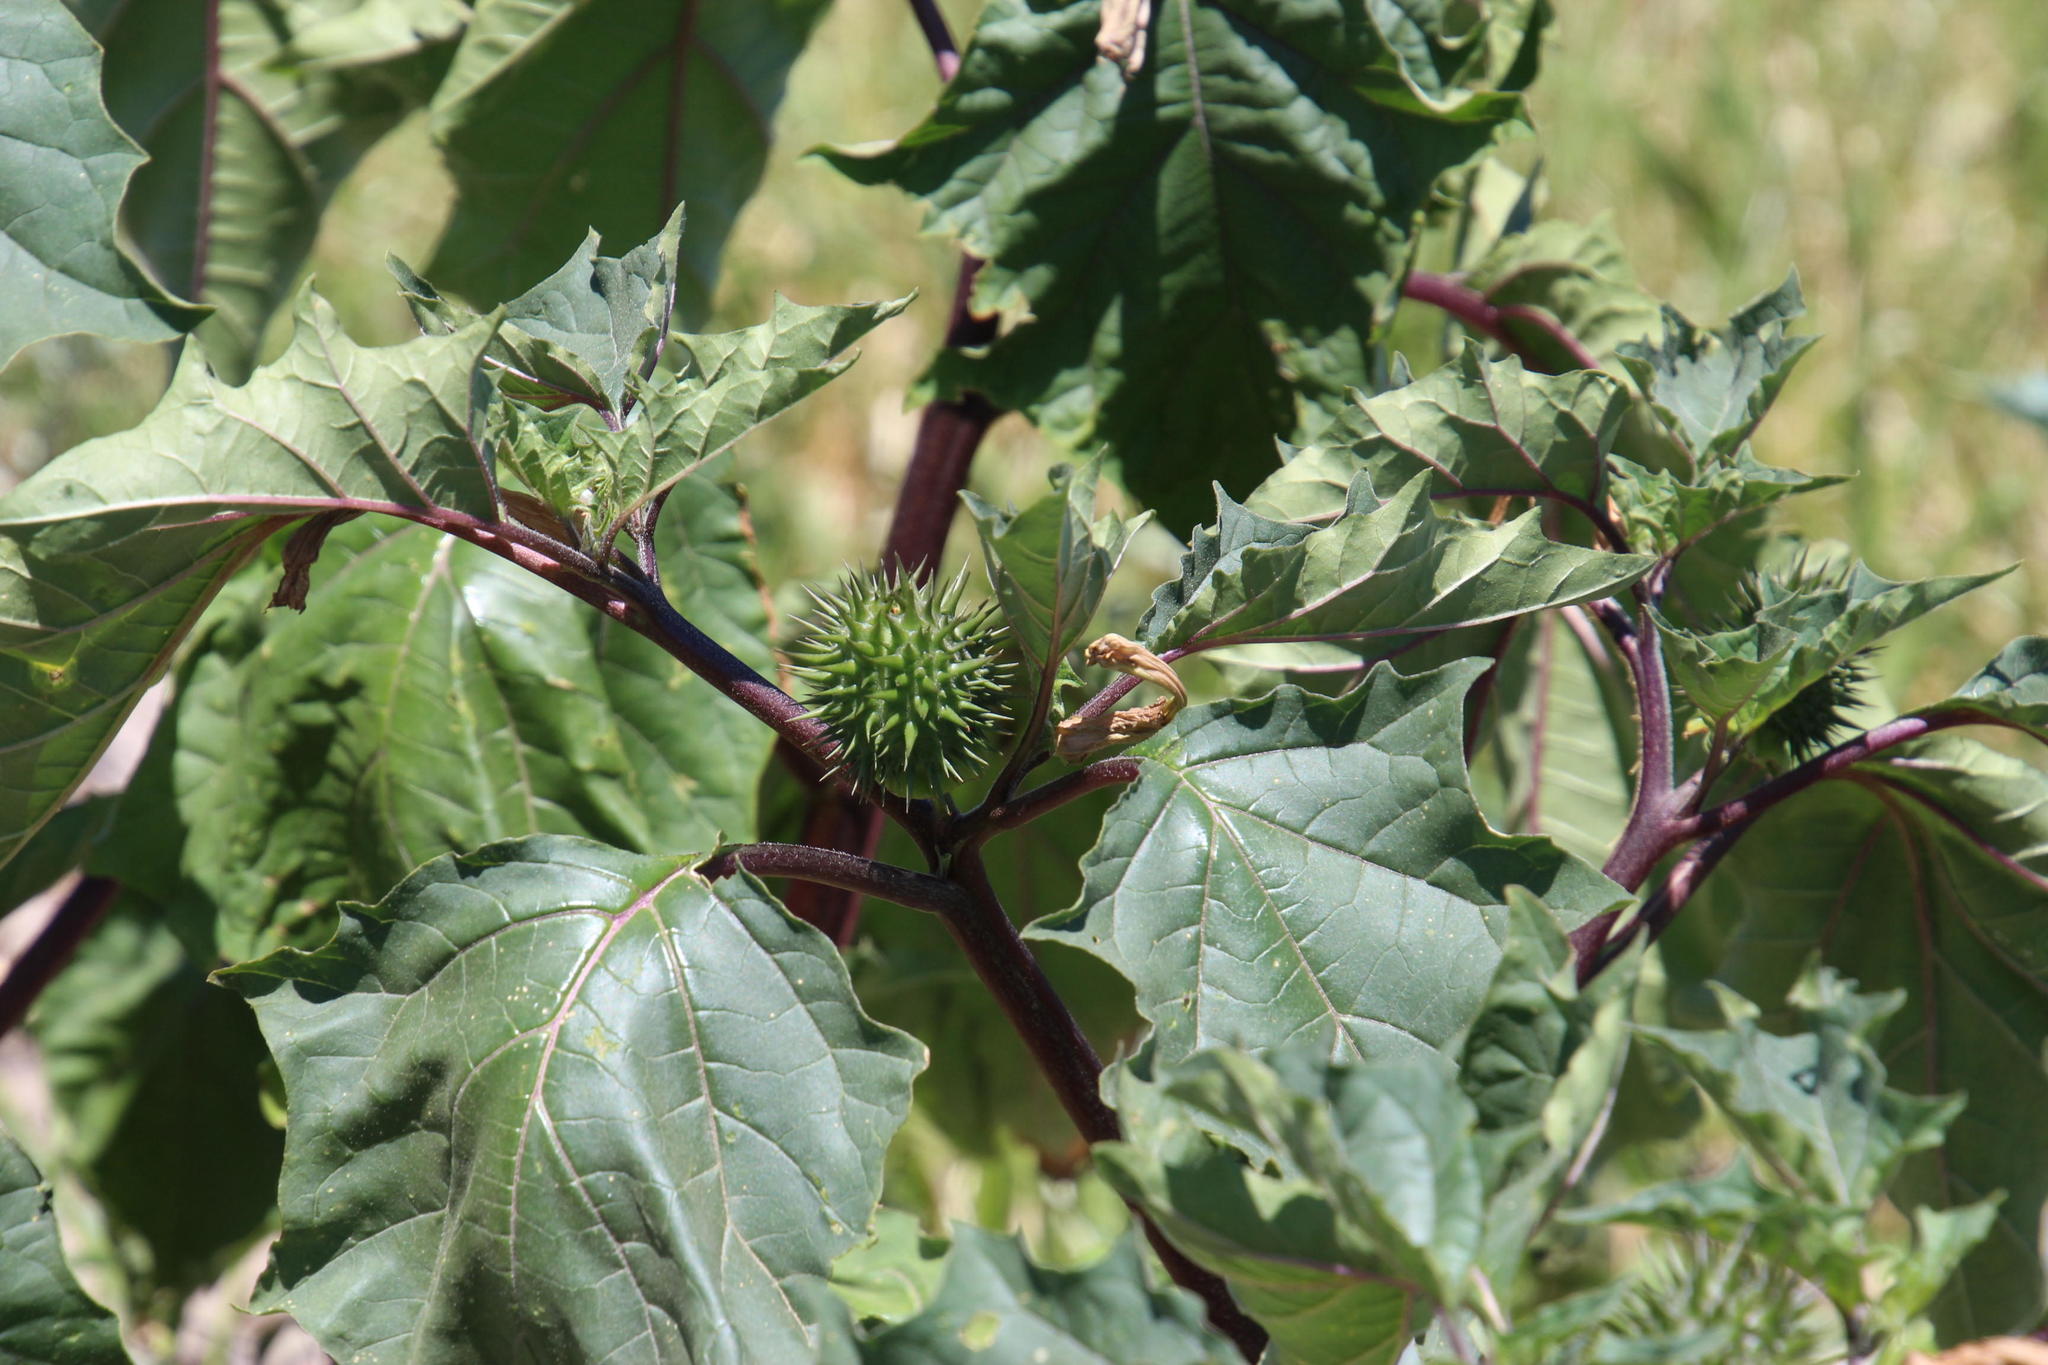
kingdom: Plantae
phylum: Tracheophyta
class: Magnoliopsida
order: Solanales
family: Solanaceae
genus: Datura
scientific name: Datura stramonium
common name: Thorn-apple
